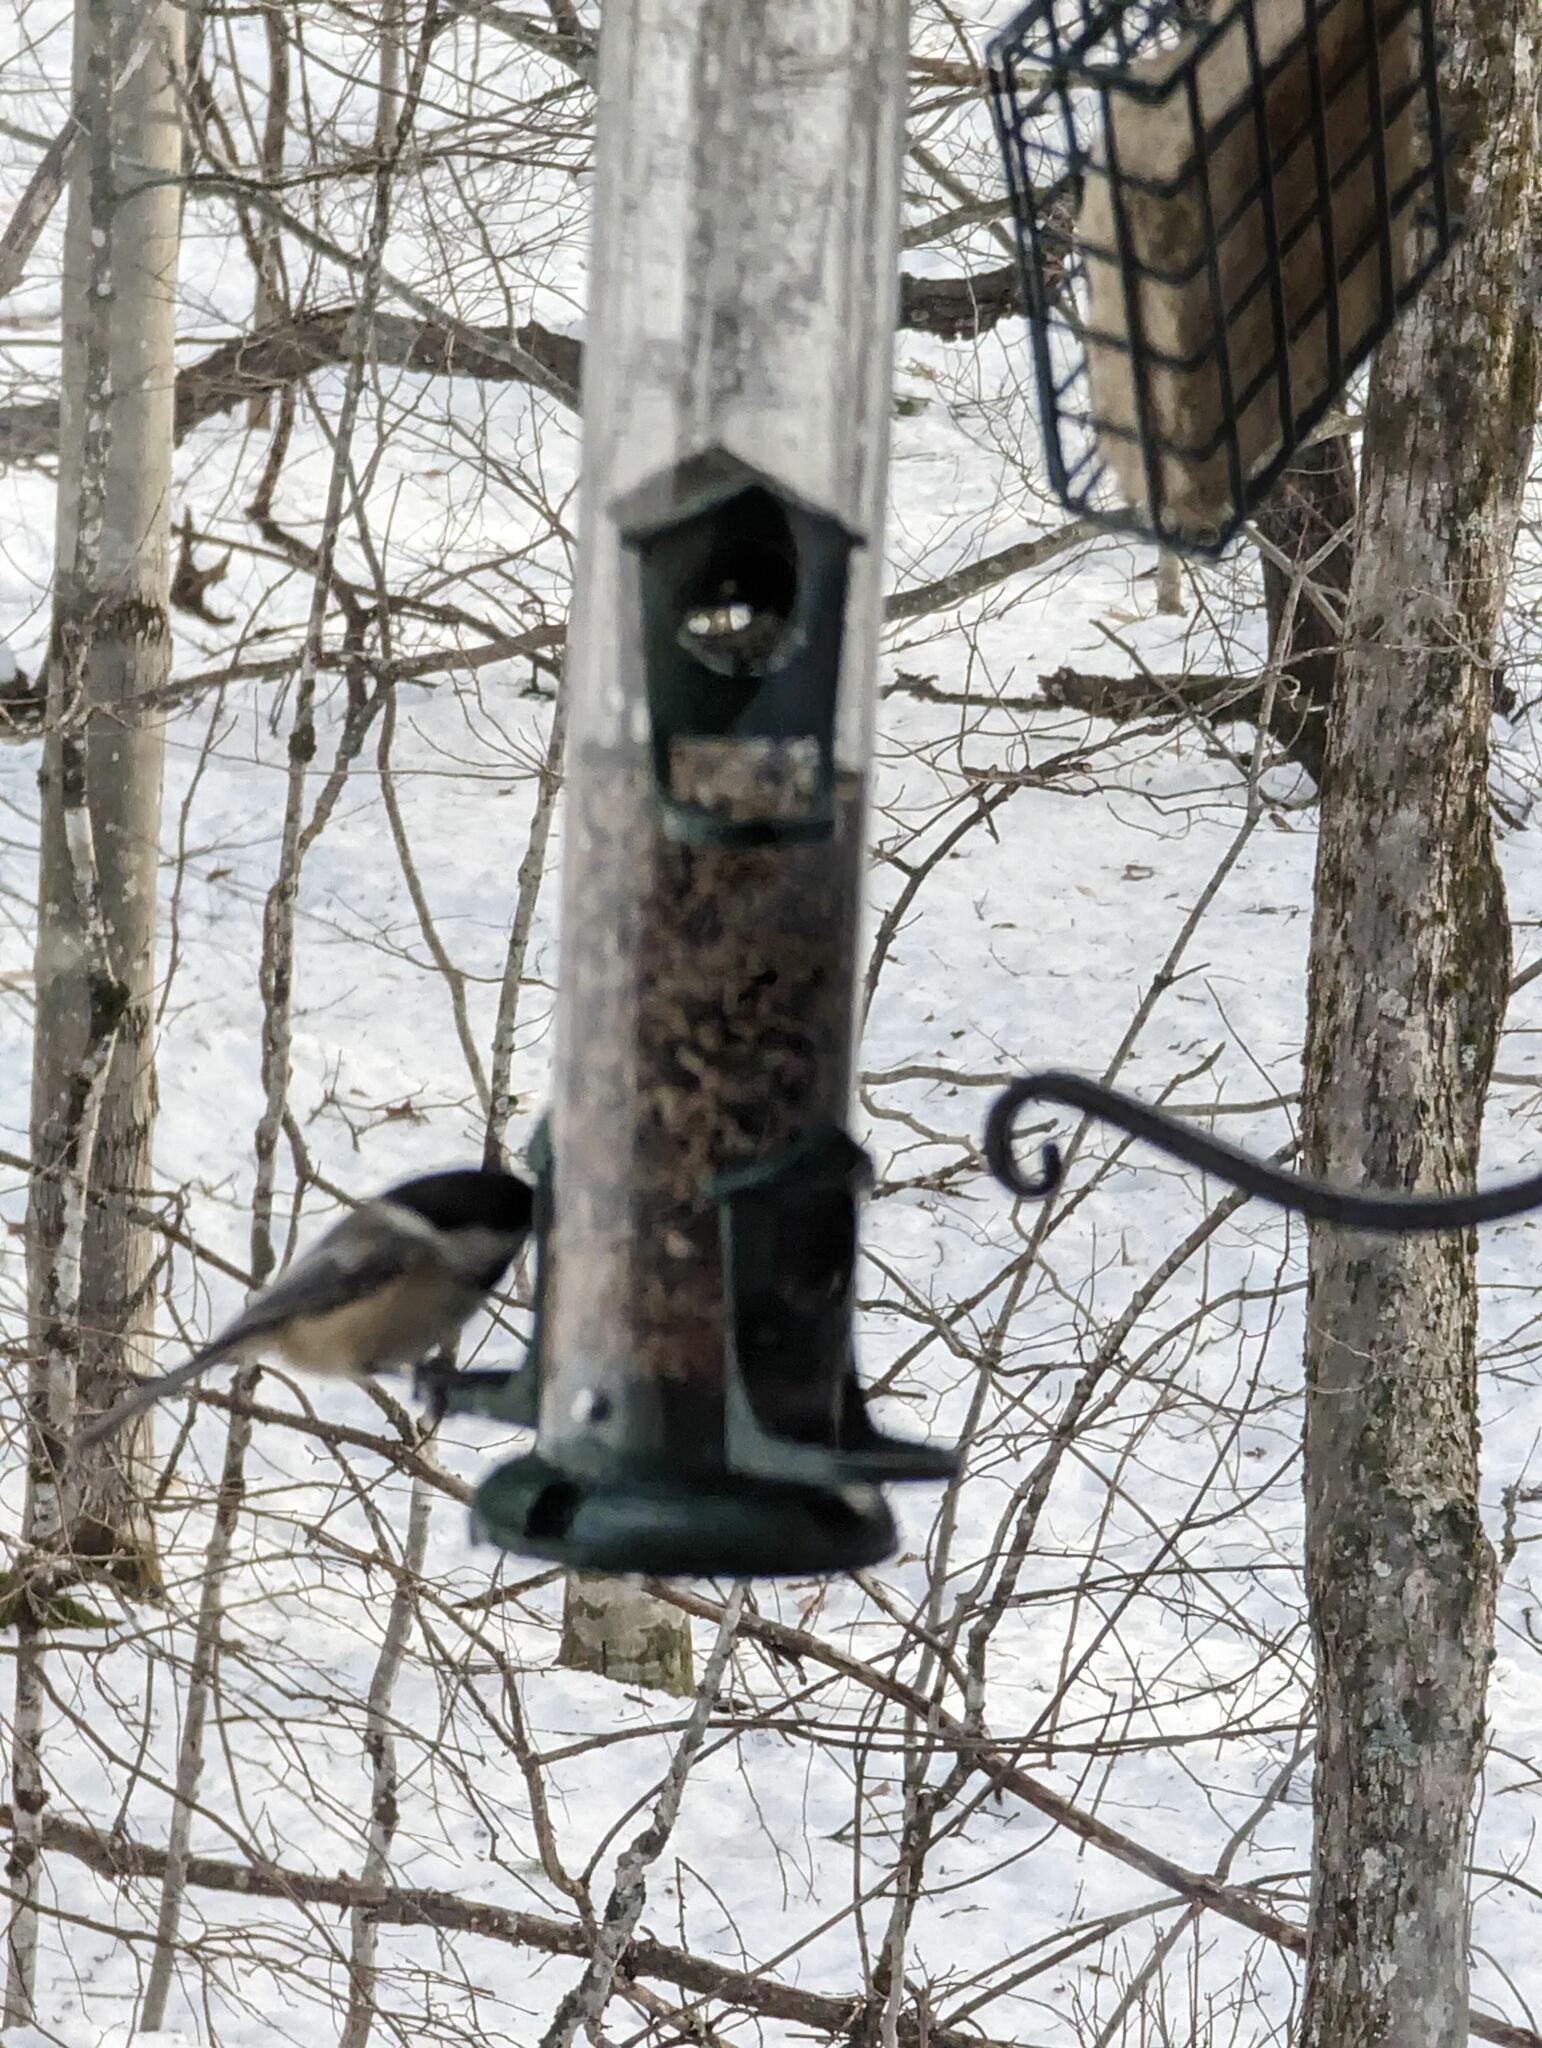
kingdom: Animalia
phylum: Chordata
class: Aves
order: Passeriformes
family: Paridae
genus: Poecile
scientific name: Poecile atricapillus
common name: Black-capped chickadee
